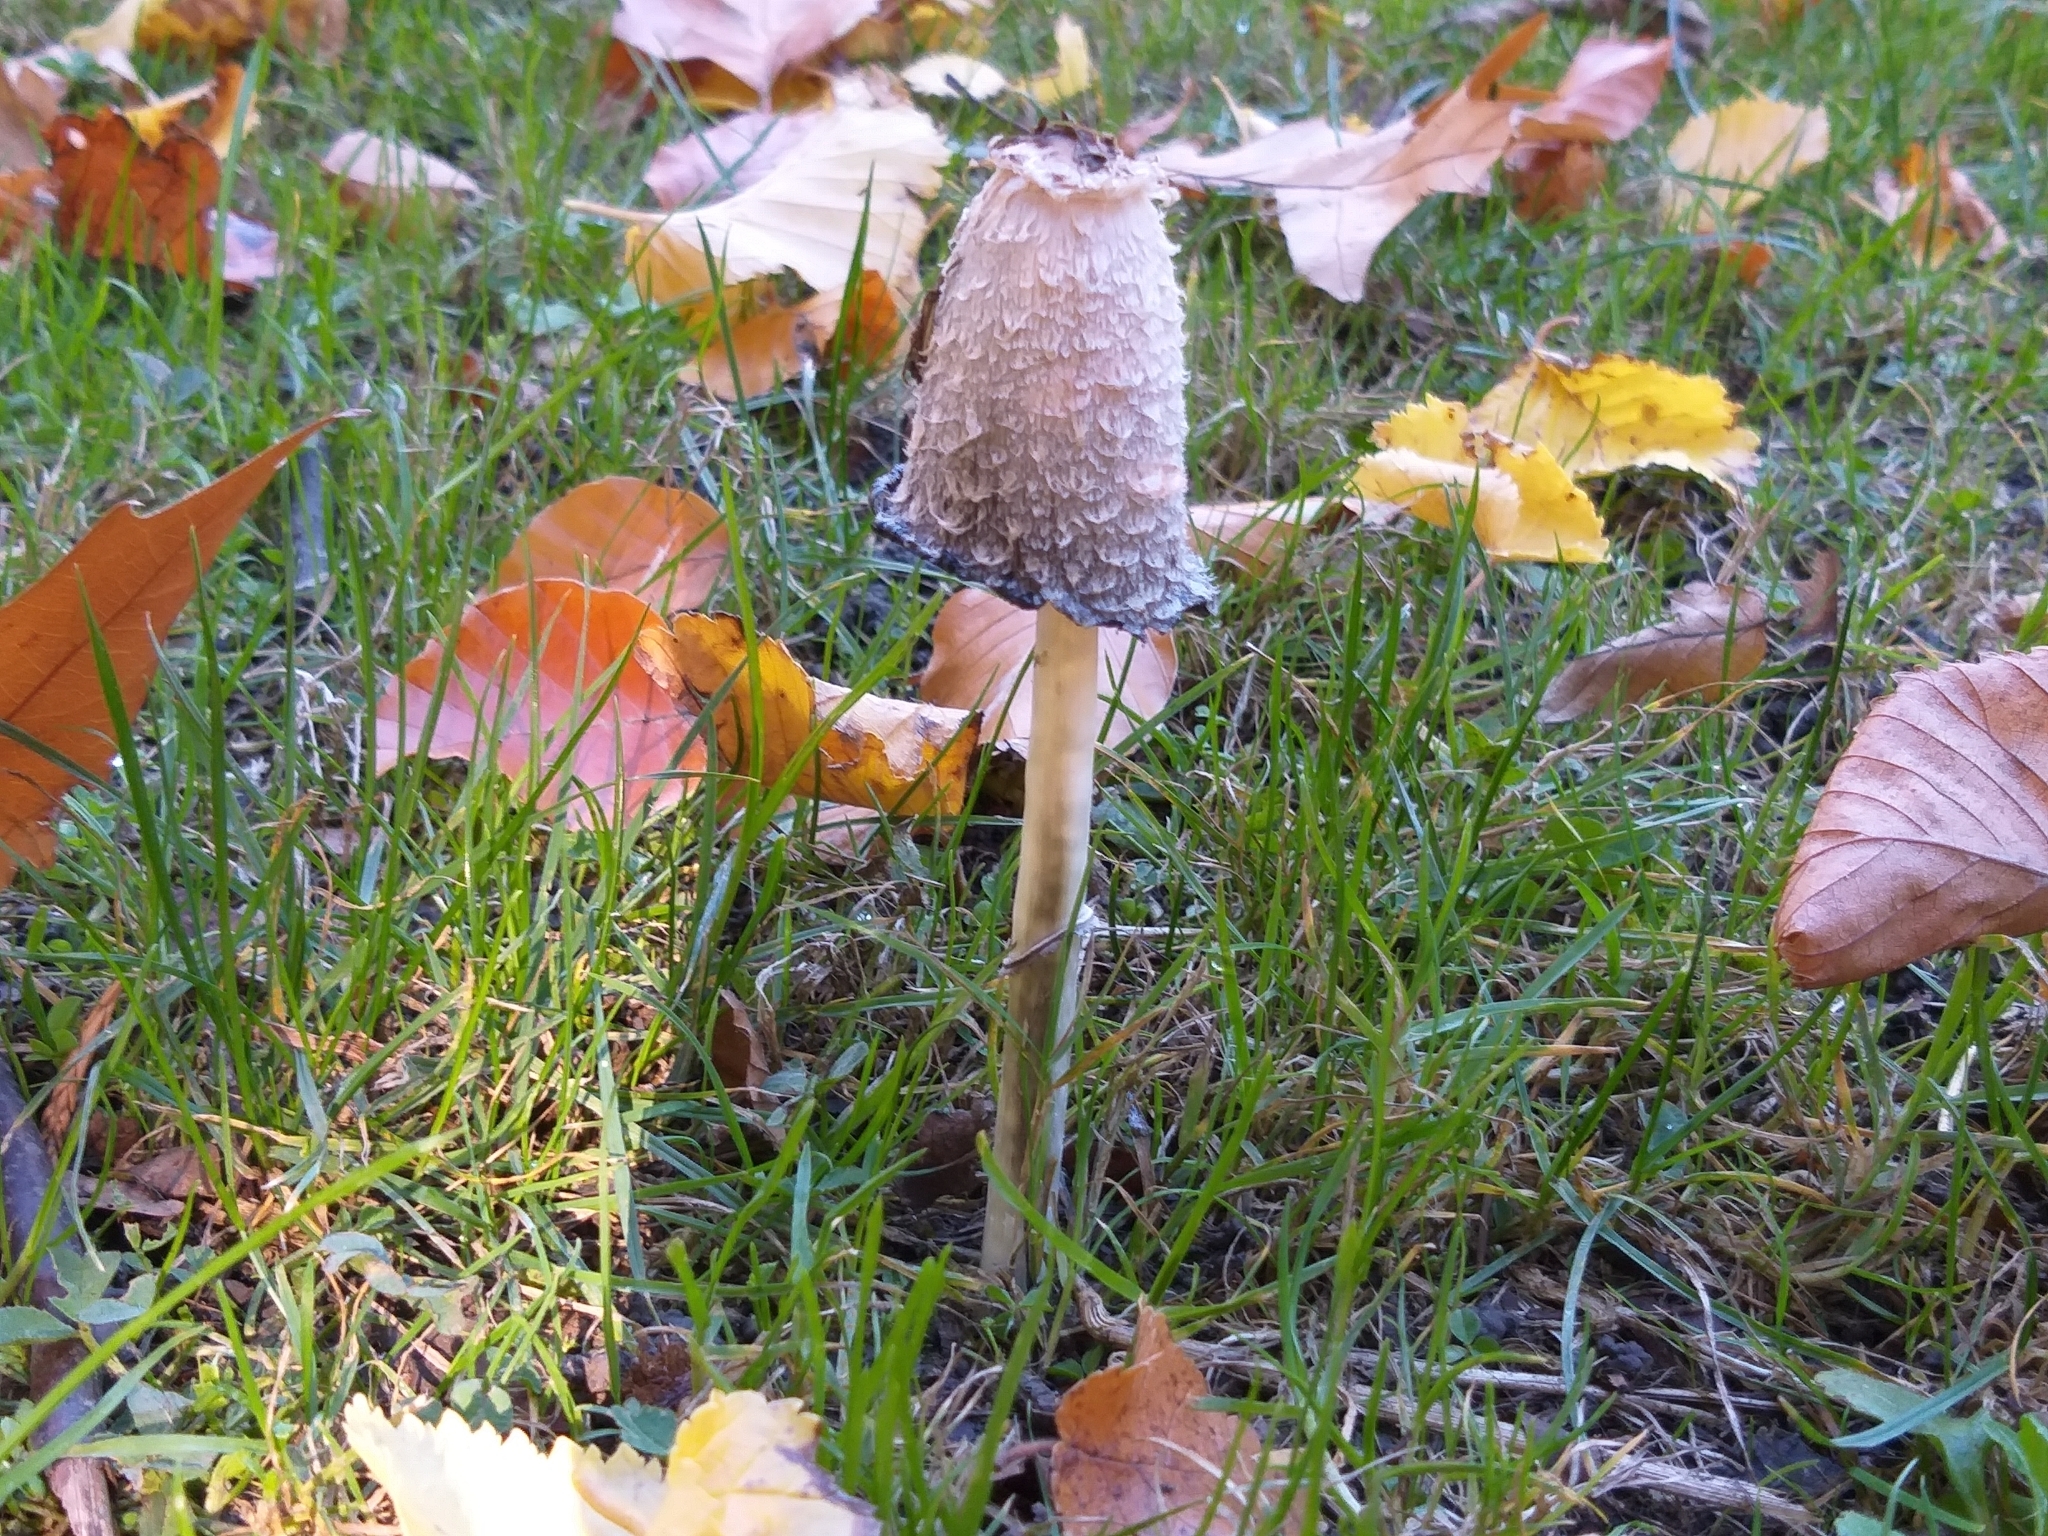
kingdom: Fungi
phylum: Basidiomycota
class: Agaricomycetes
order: Agaricales
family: Agaricaceae
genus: Coprinus
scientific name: Coprinus comatus
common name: Lawyer's wig
